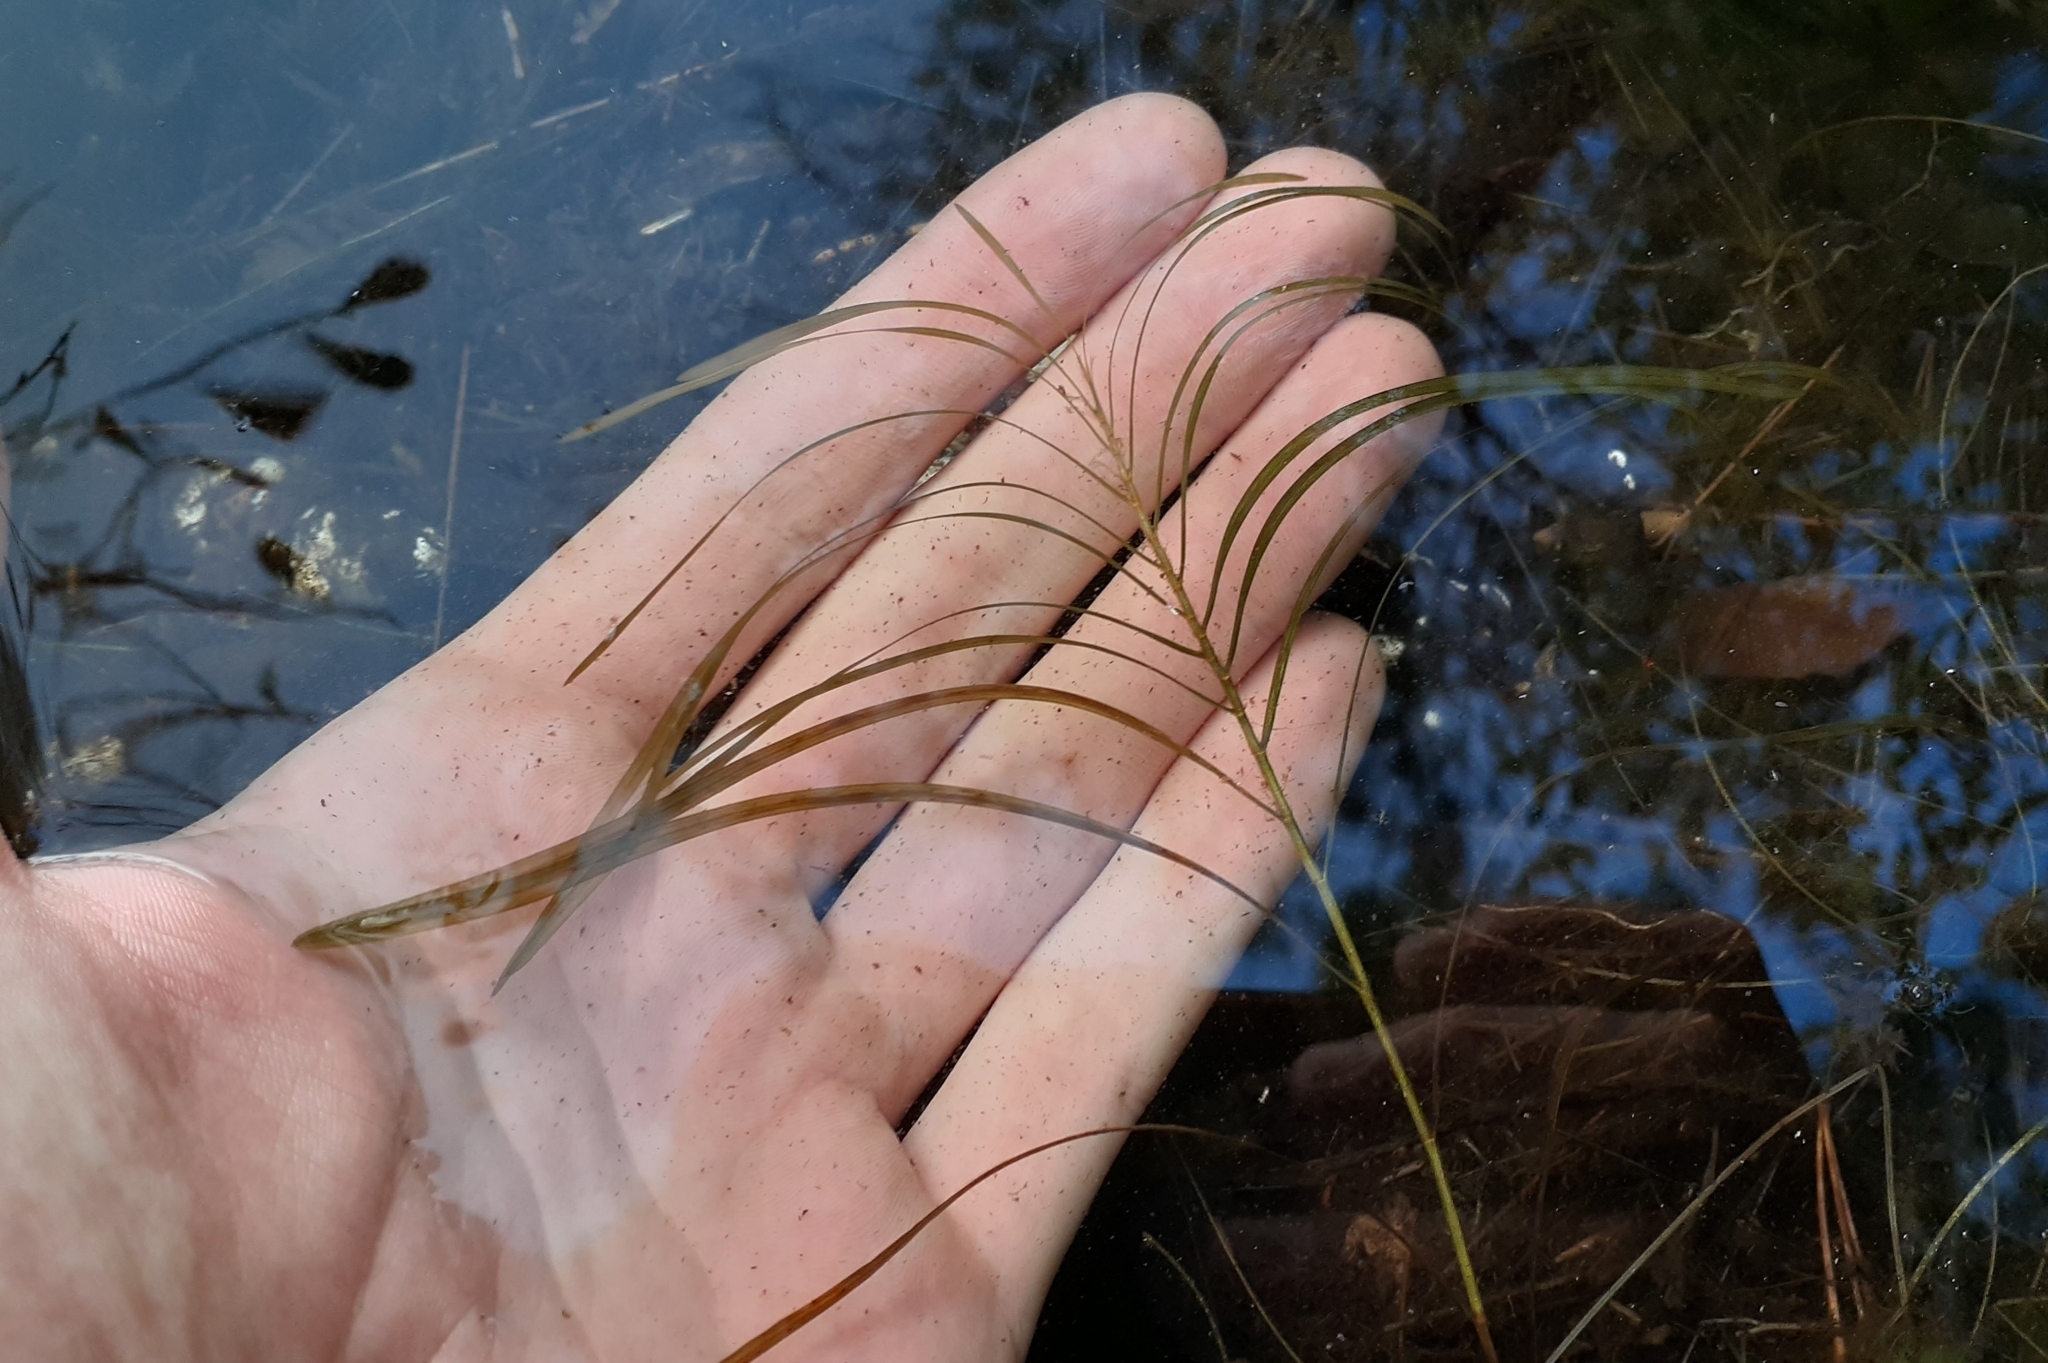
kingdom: Plantae
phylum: Tracheophyta
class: Liliopsida
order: Alismatales
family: Potamogetonaceae
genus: Potamogeton
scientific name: Potamogeton robbinsii
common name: Fern pondweed
